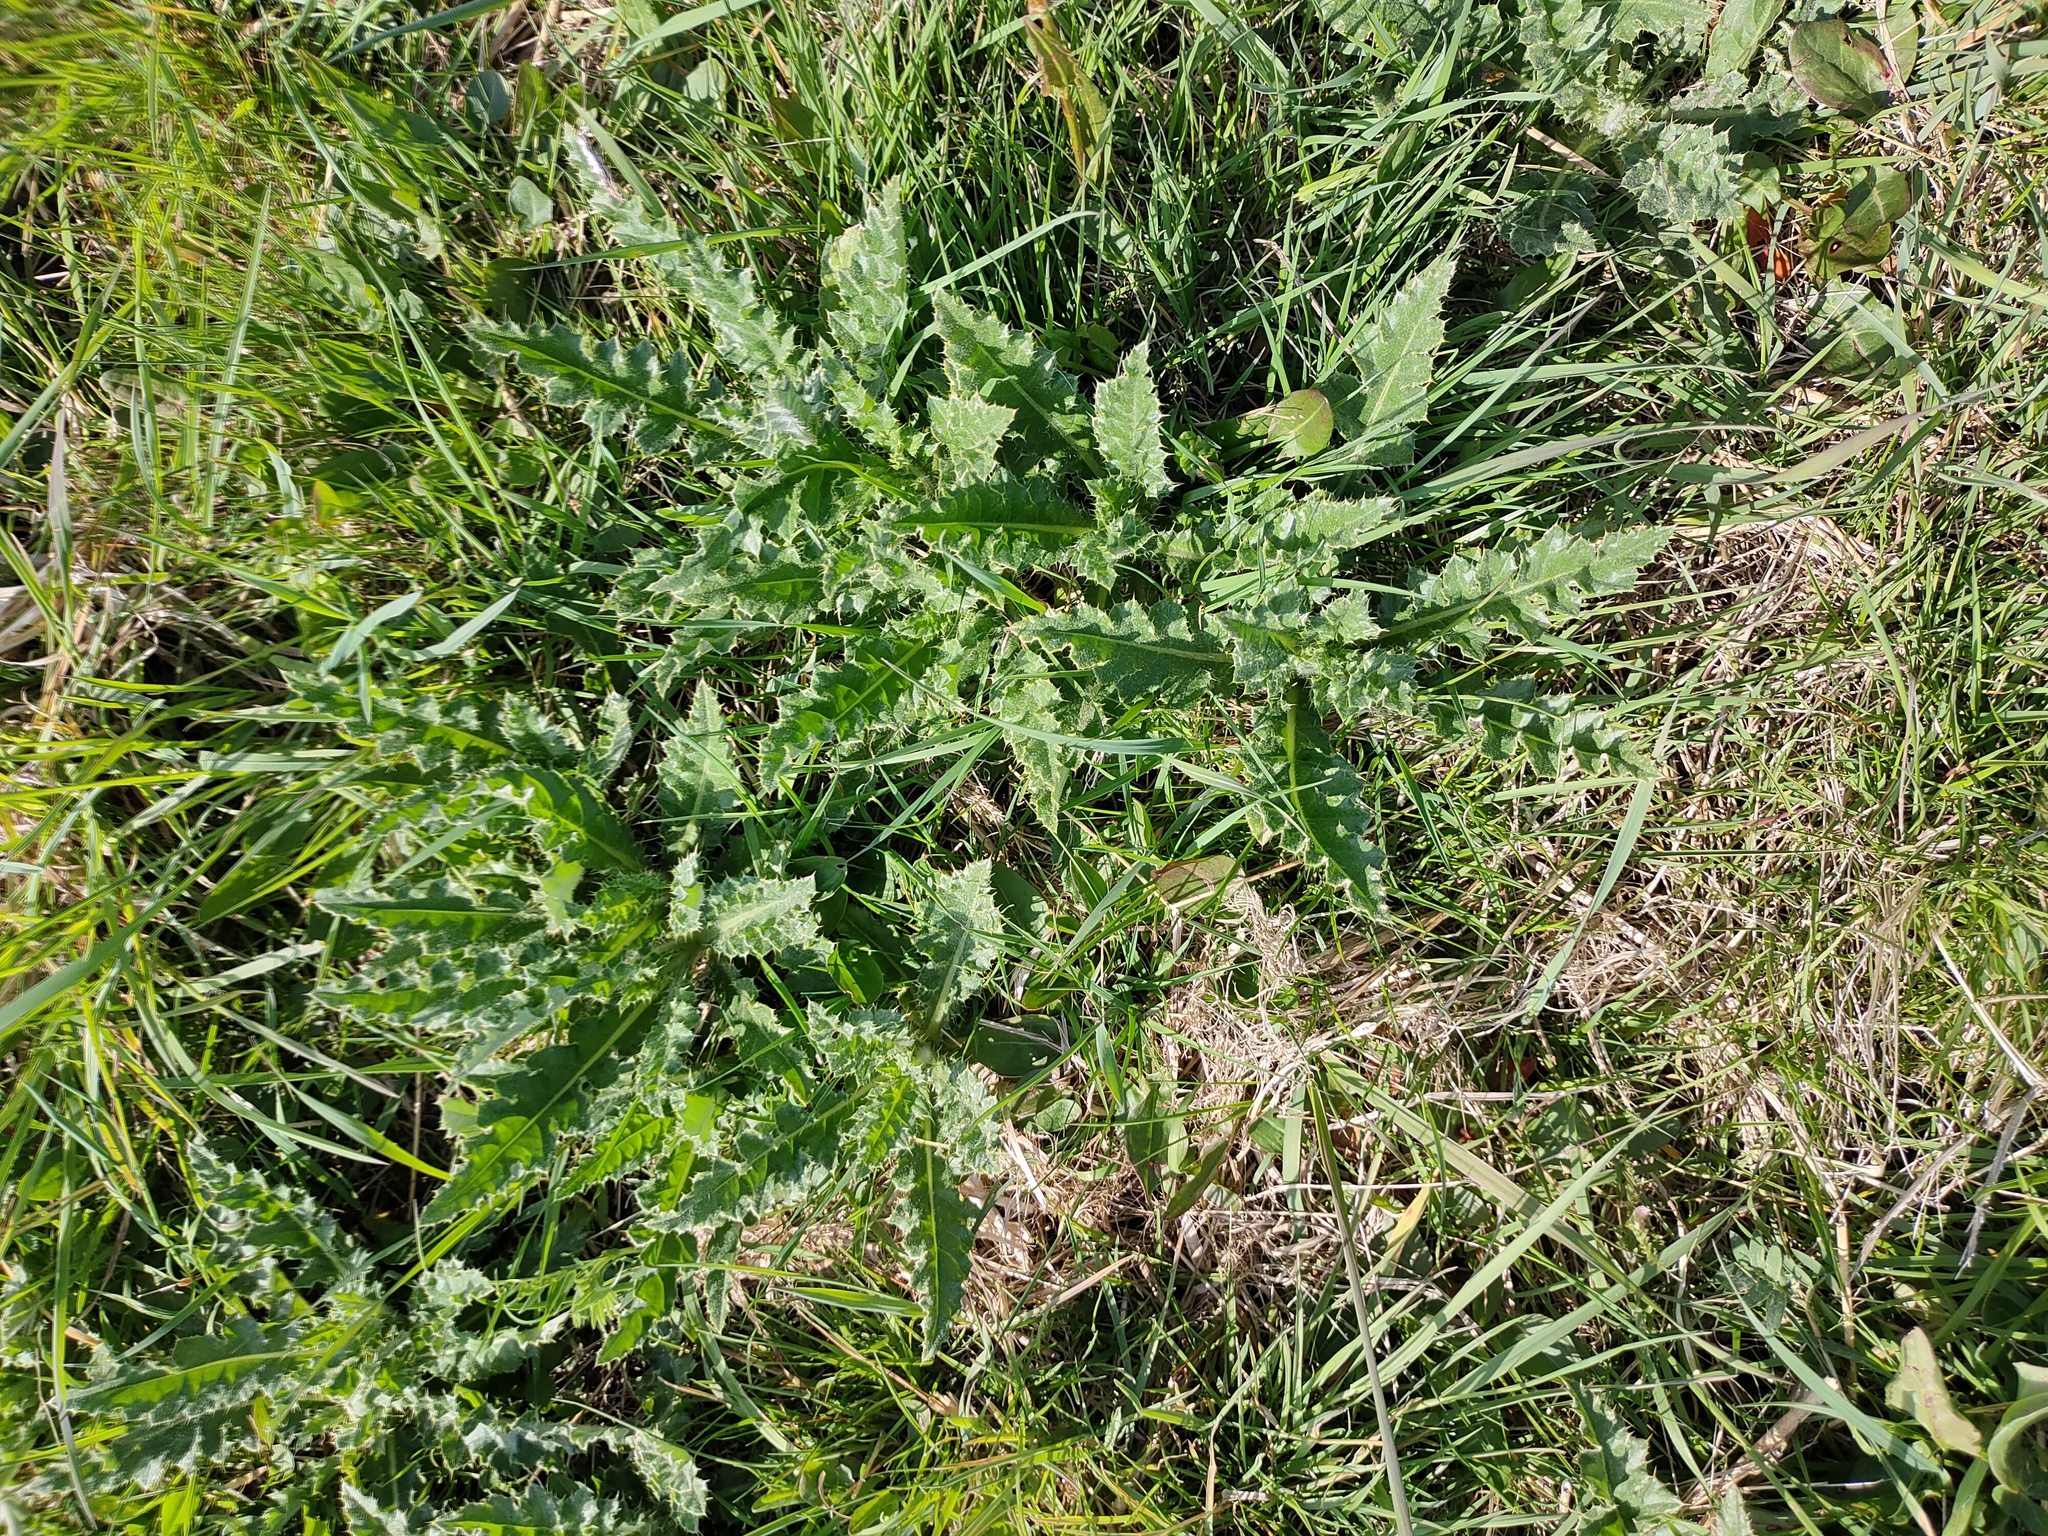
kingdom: Plantae
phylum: Tracheophyta
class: Magnoliopsida
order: Asterales
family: Asteraceae
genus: Cirsium
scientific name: Cirsium arvense
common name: Creeping thistle
